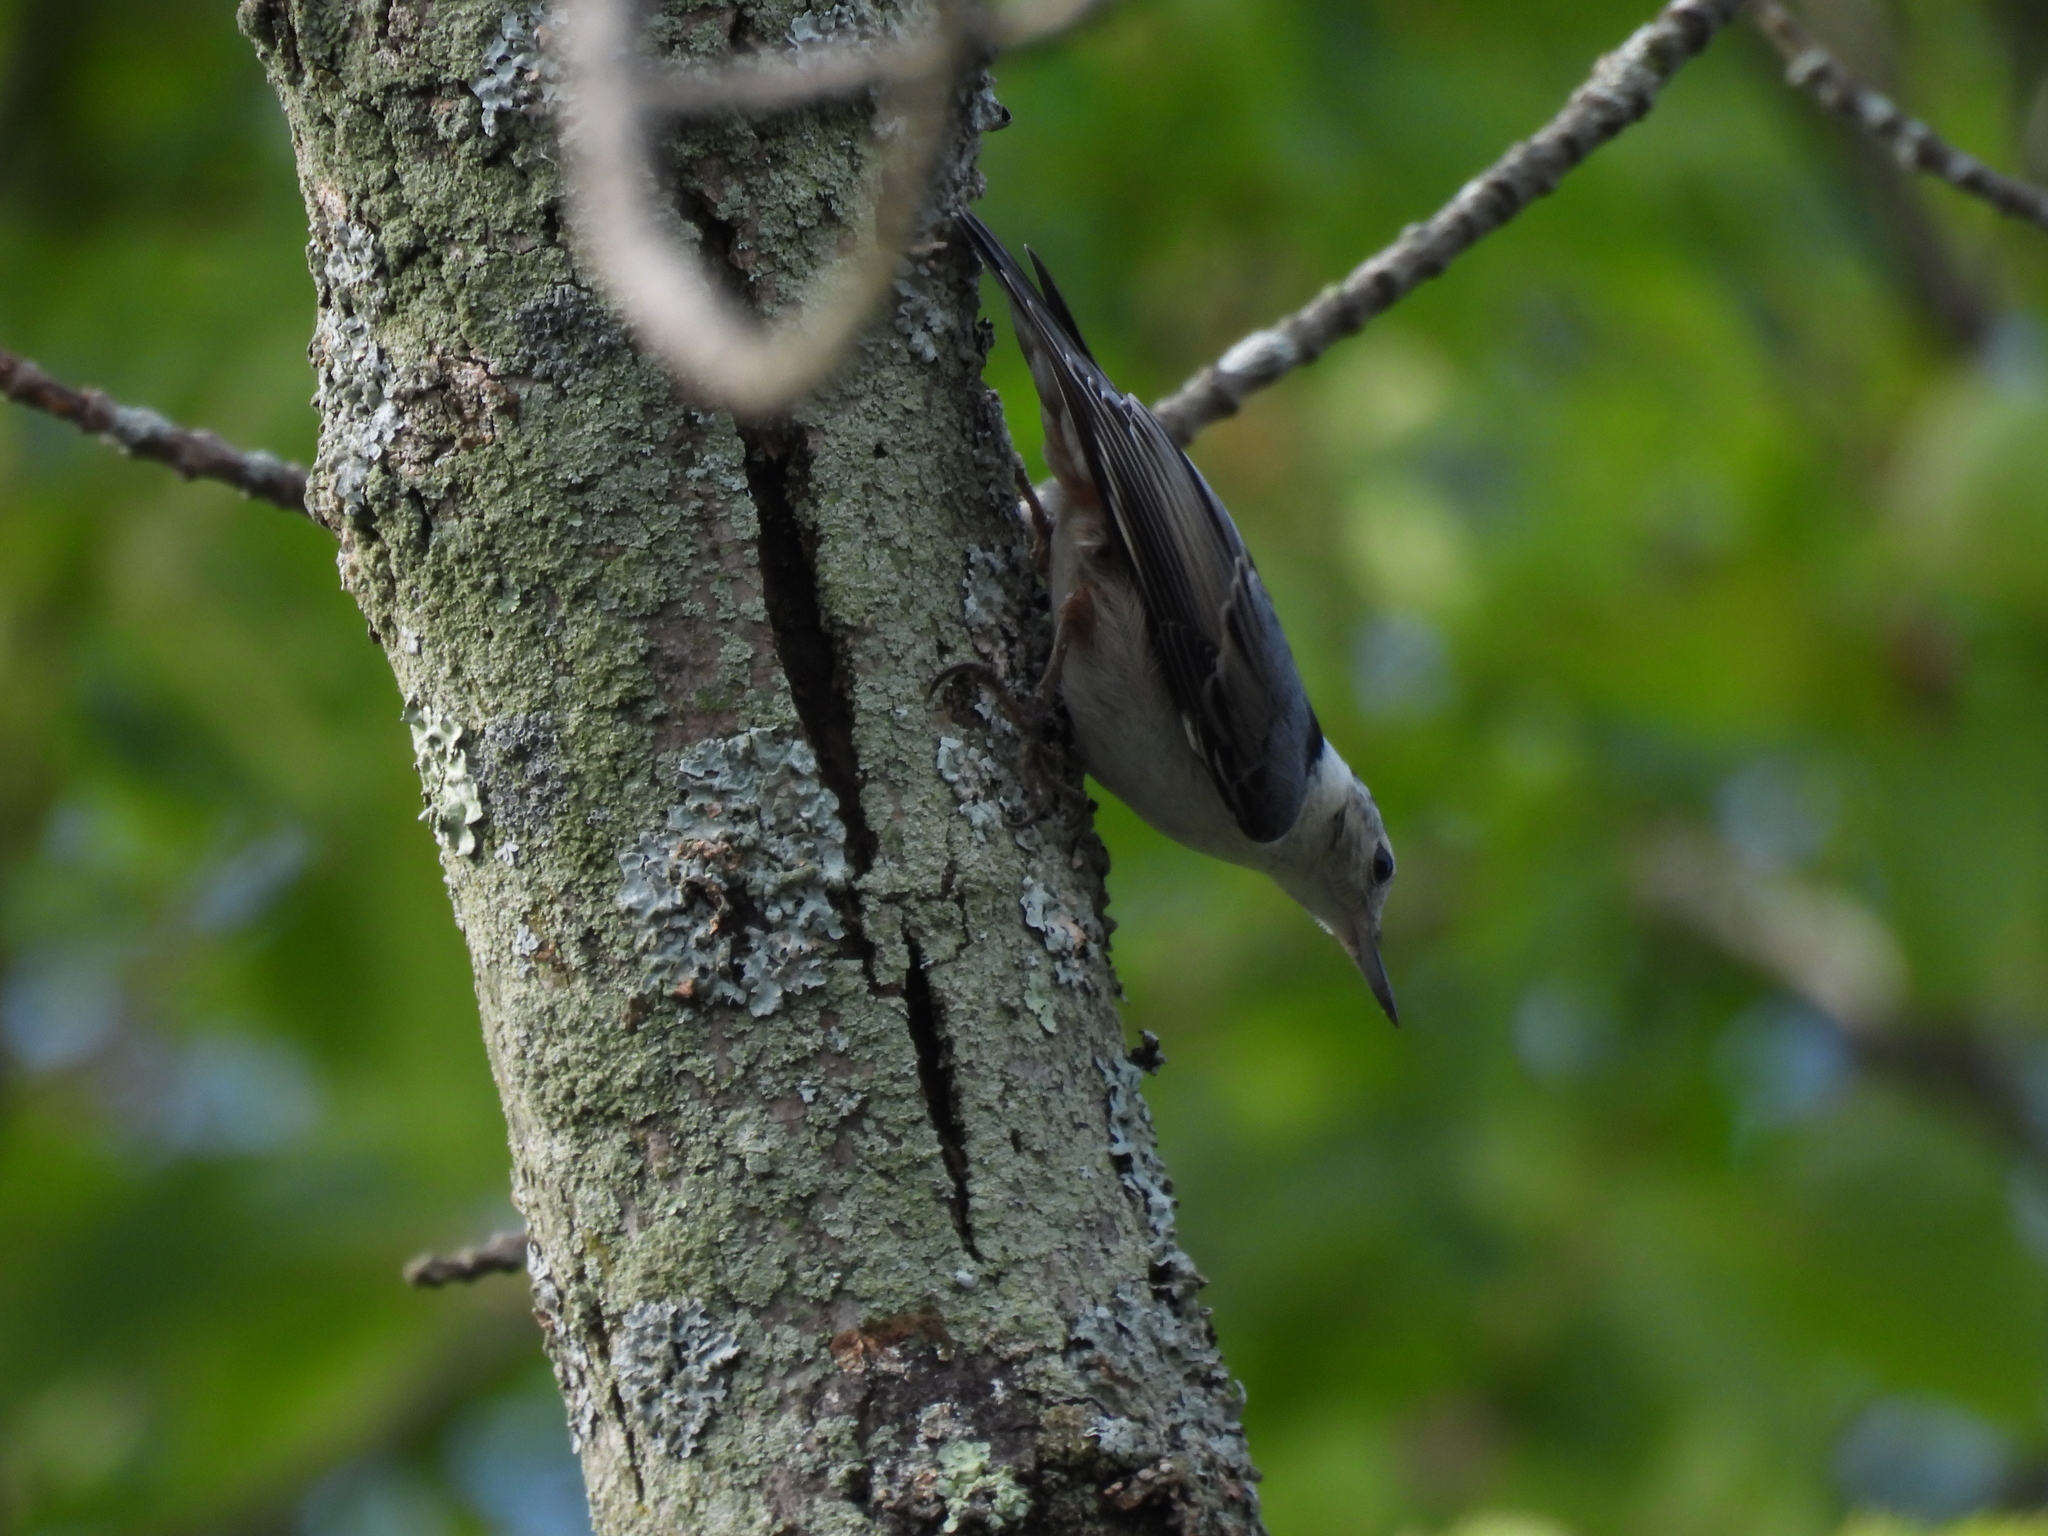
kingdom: Animalia
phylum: Chordata
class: Aves
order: Passeriformes
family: Sittidae
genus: Sitta
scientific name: Sitta carolinensis
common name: White-breasted nuthatch
